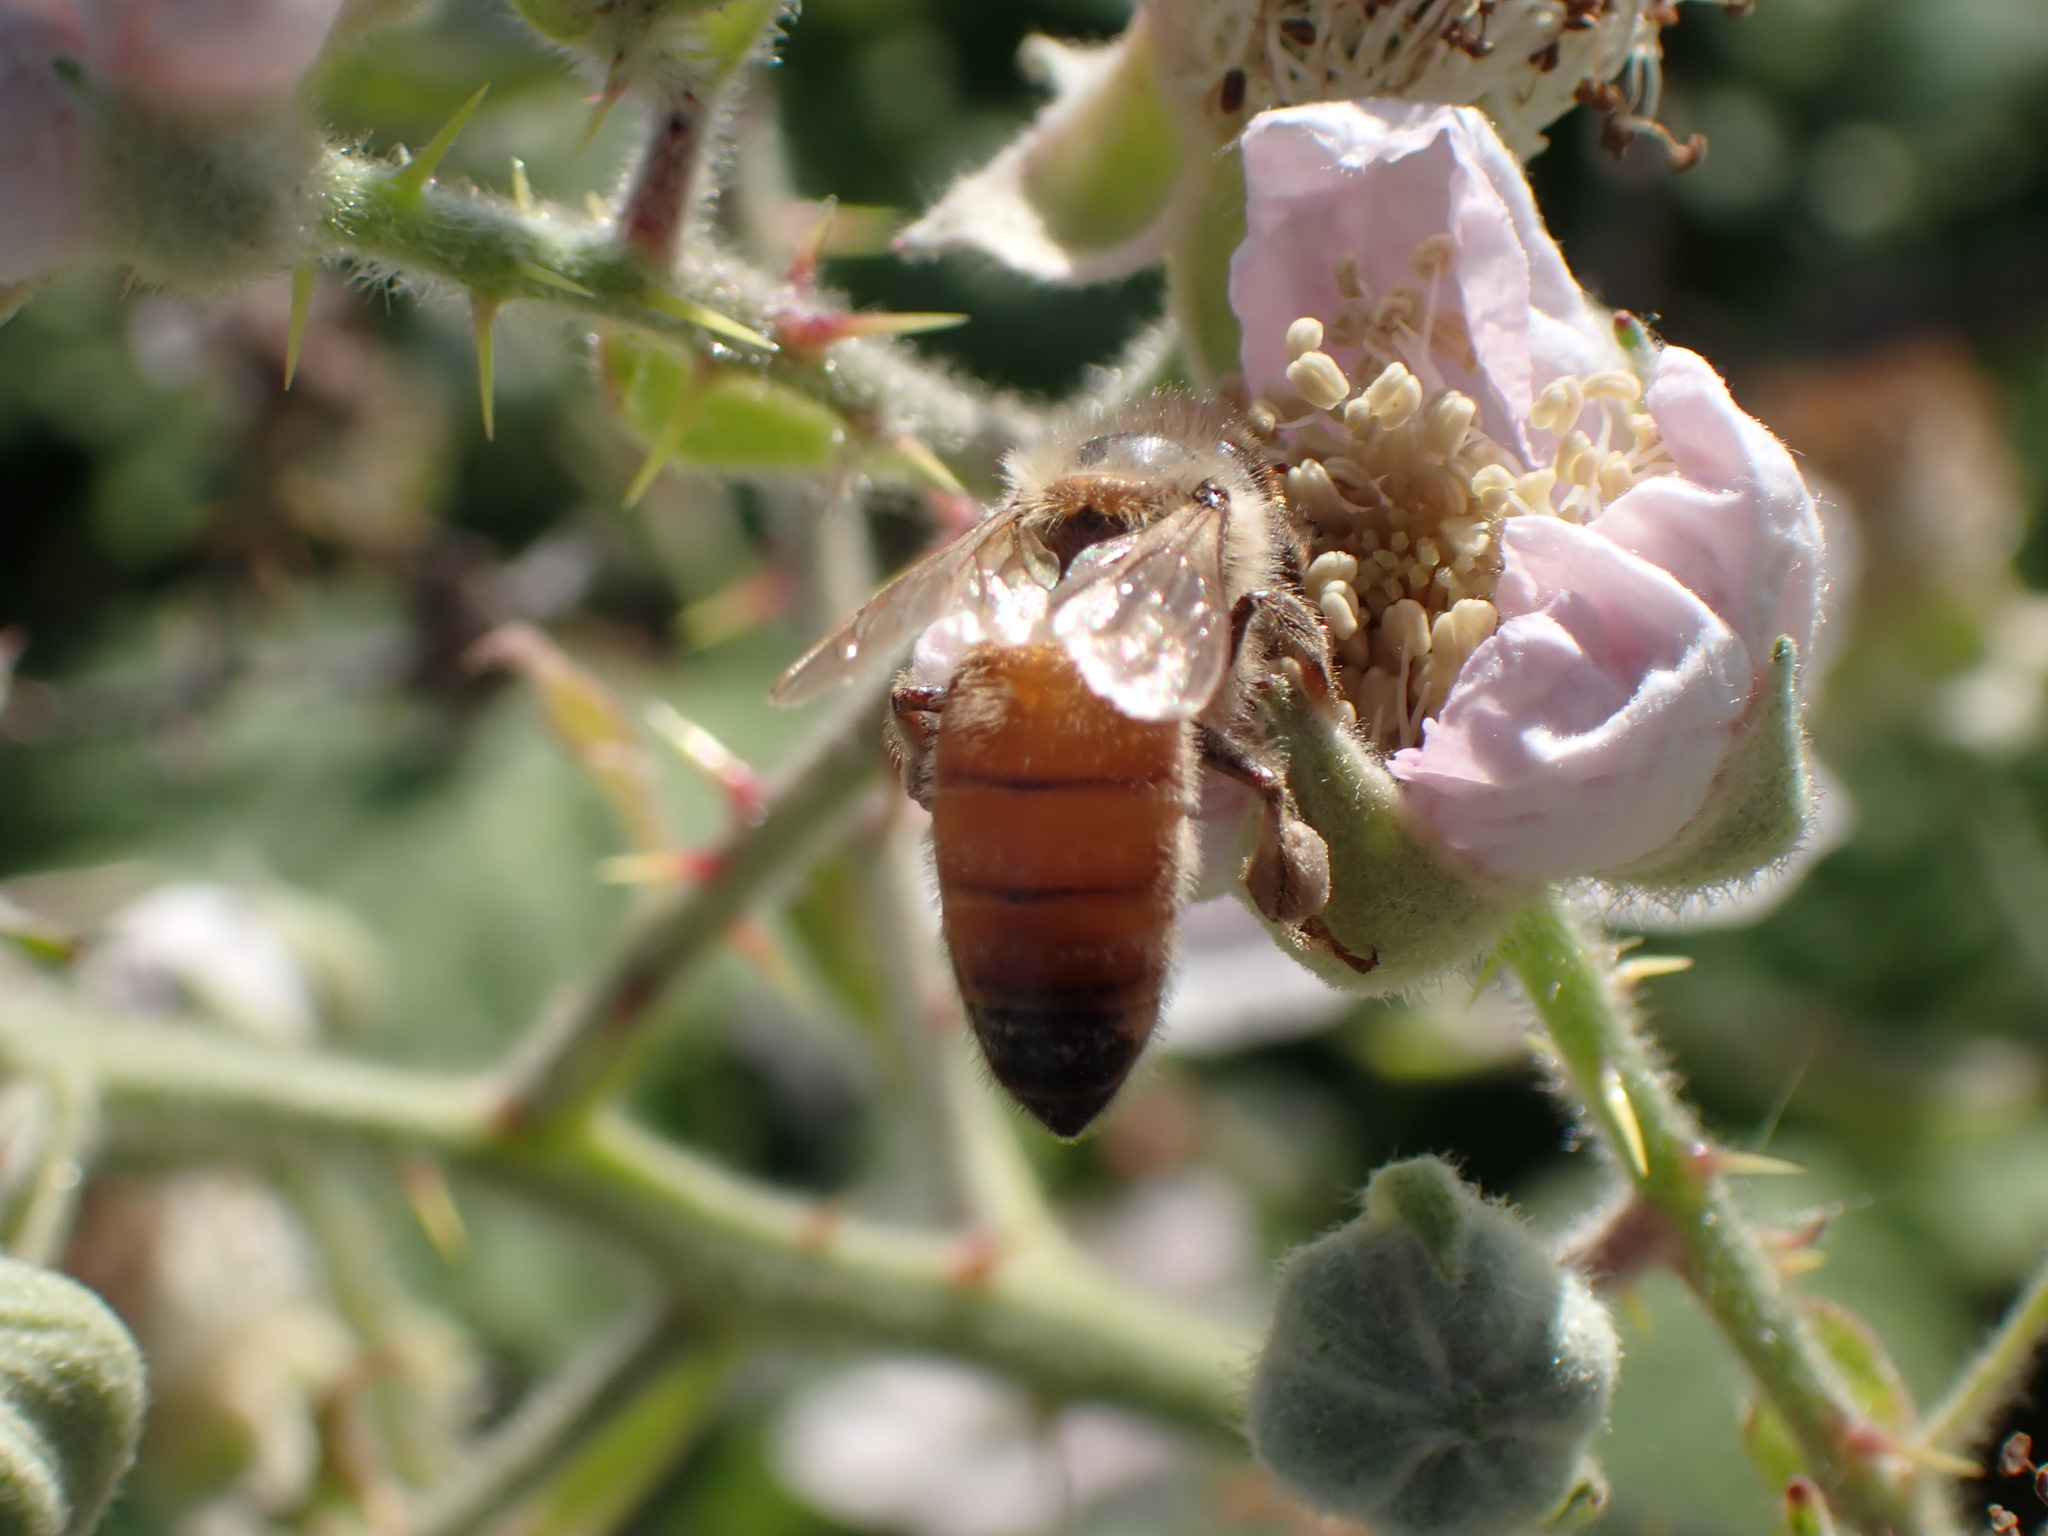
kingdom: Animalia
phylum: Arthropoda
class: Insecta
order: Hymenoptera
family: Apidae
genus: Apis
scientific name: Apis mellifera
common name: Honey bee
